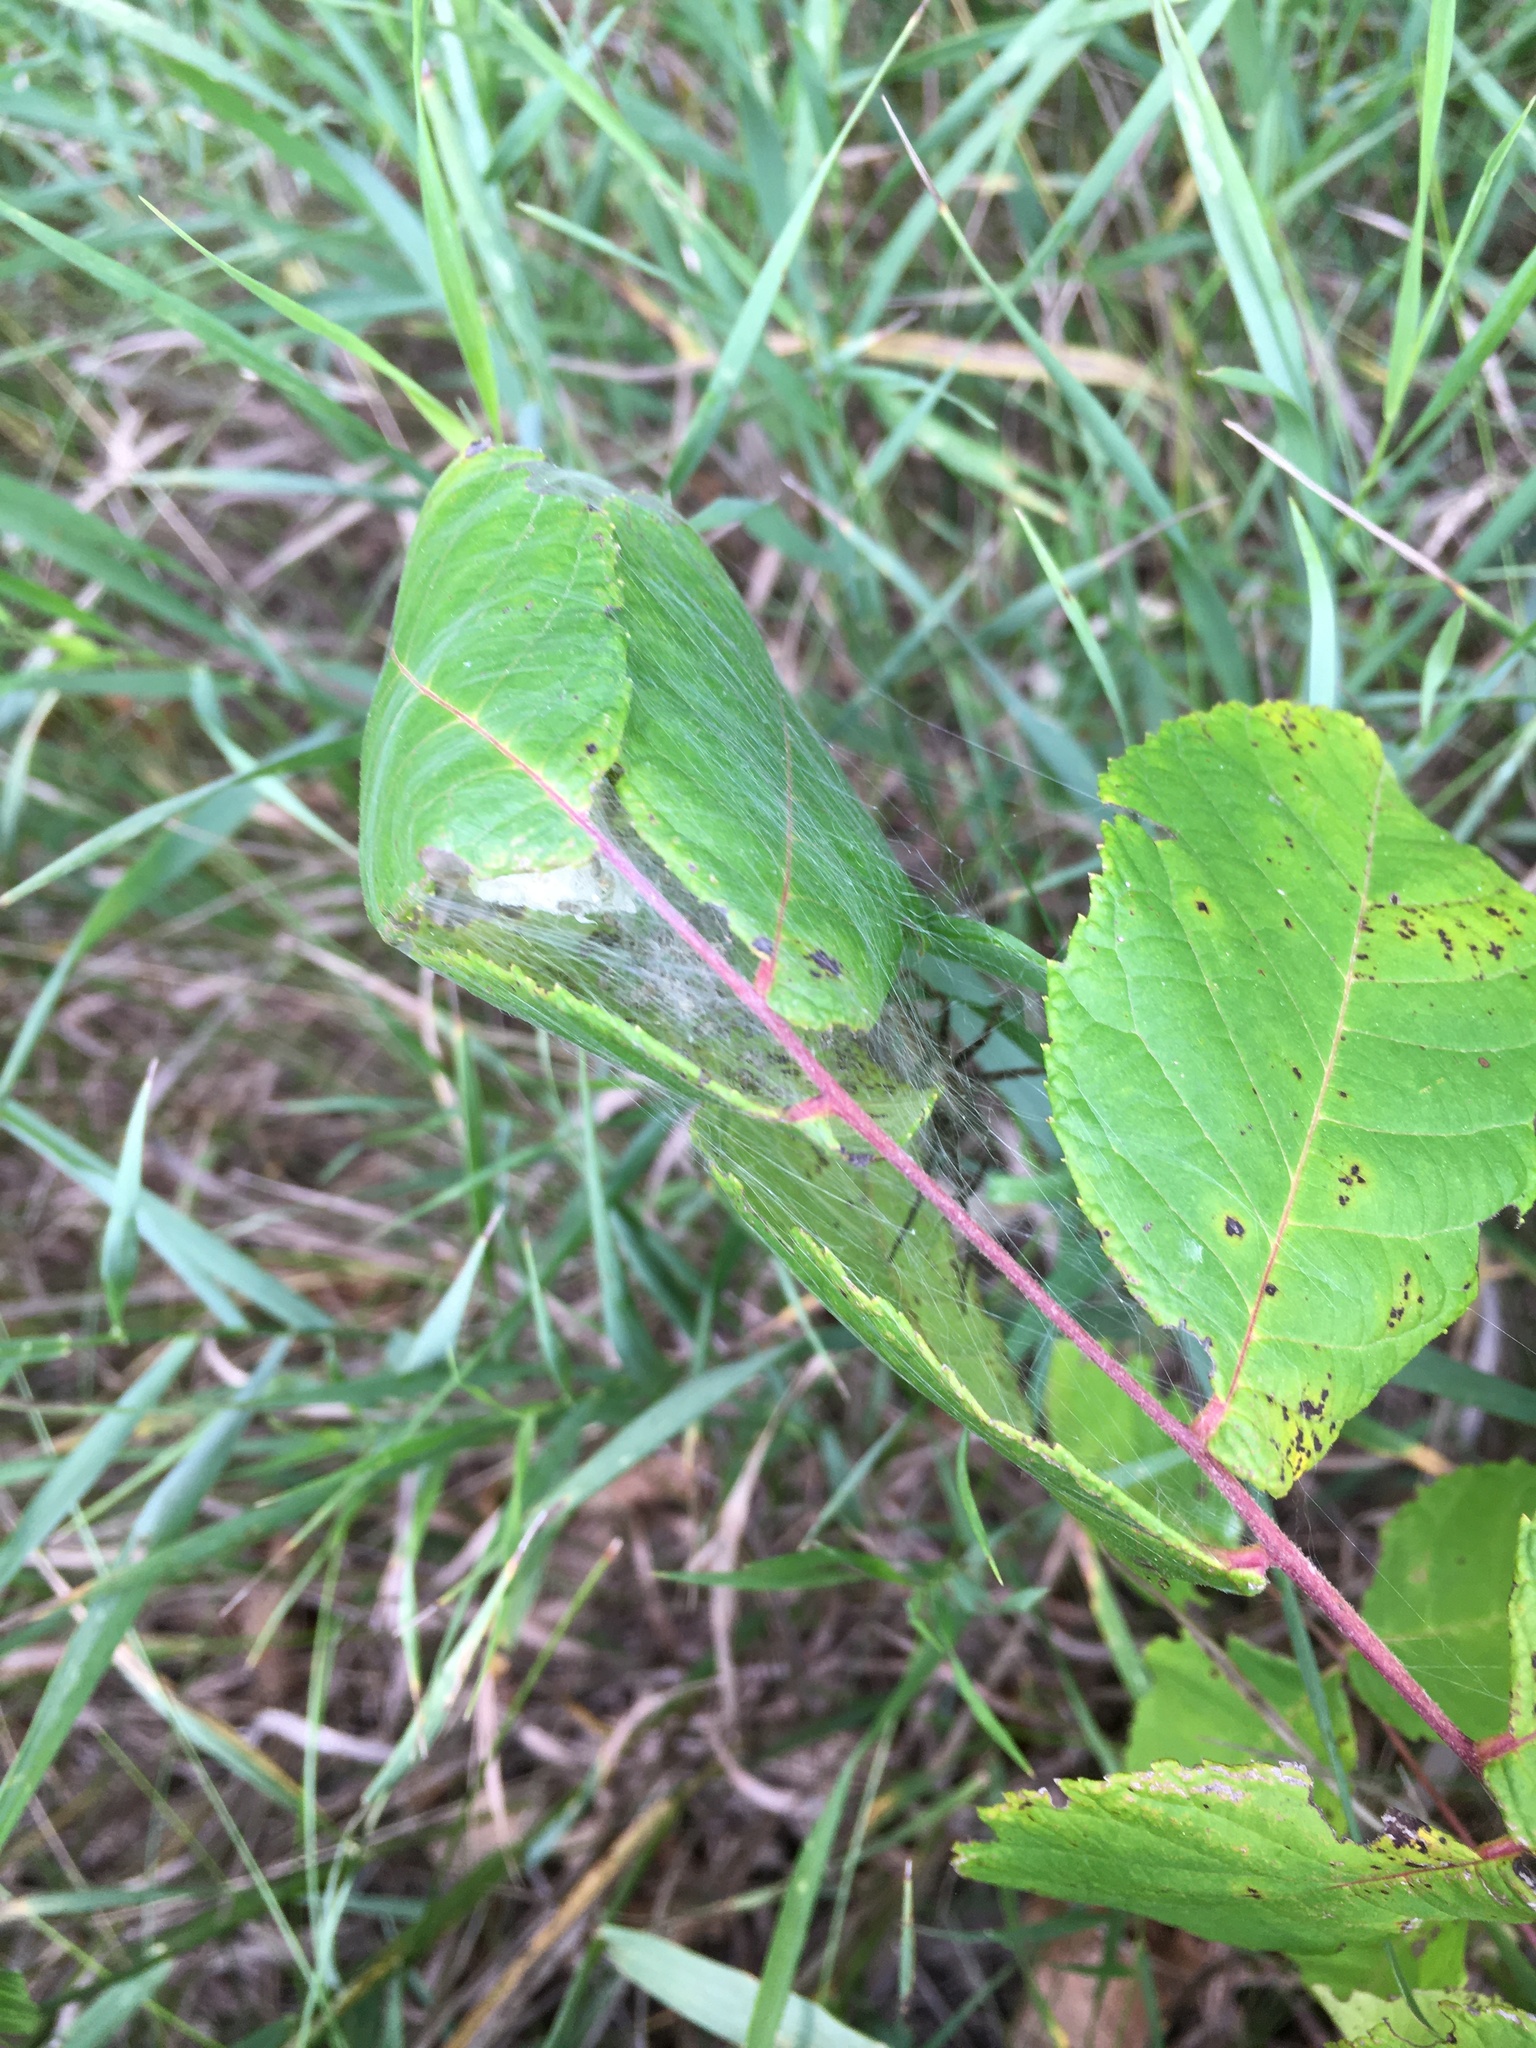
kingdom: Animalia
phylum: Arthropoda
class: Arachnida
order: Araneae
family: Pisauridae
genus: Pisaurina
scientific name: Pisaurina mira
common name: American nursery web spider
